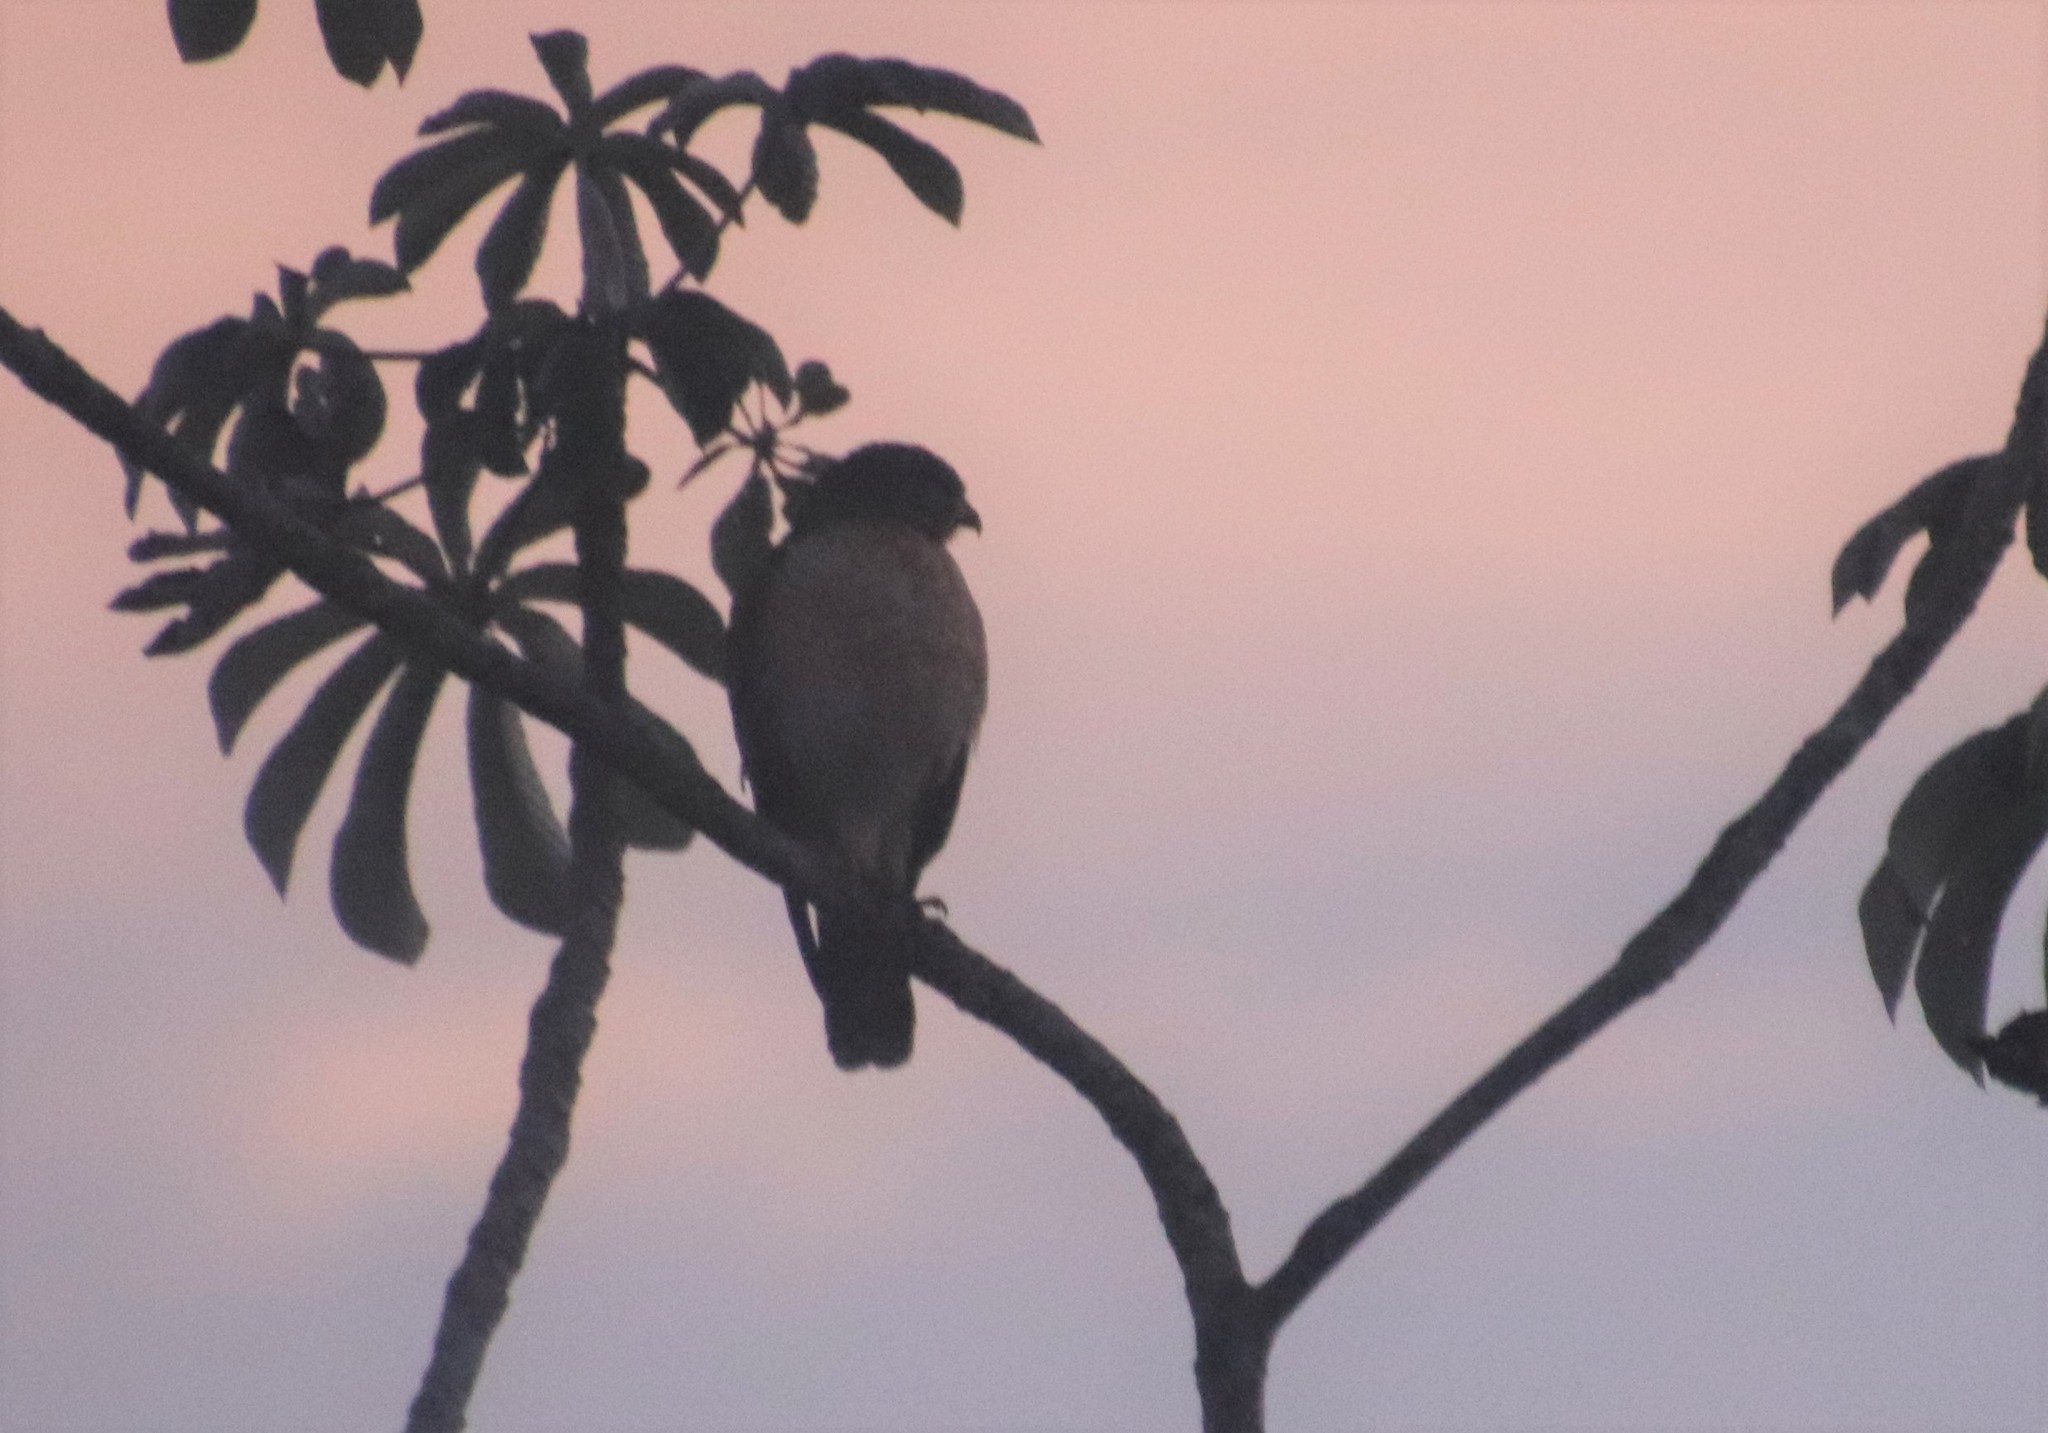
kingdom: Animalia
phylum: Chordata
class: Aves
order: Accipitriformes
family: Accipitridae
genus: Rupornis
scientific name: Rupornis magnirostris
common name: Roadside hawk
